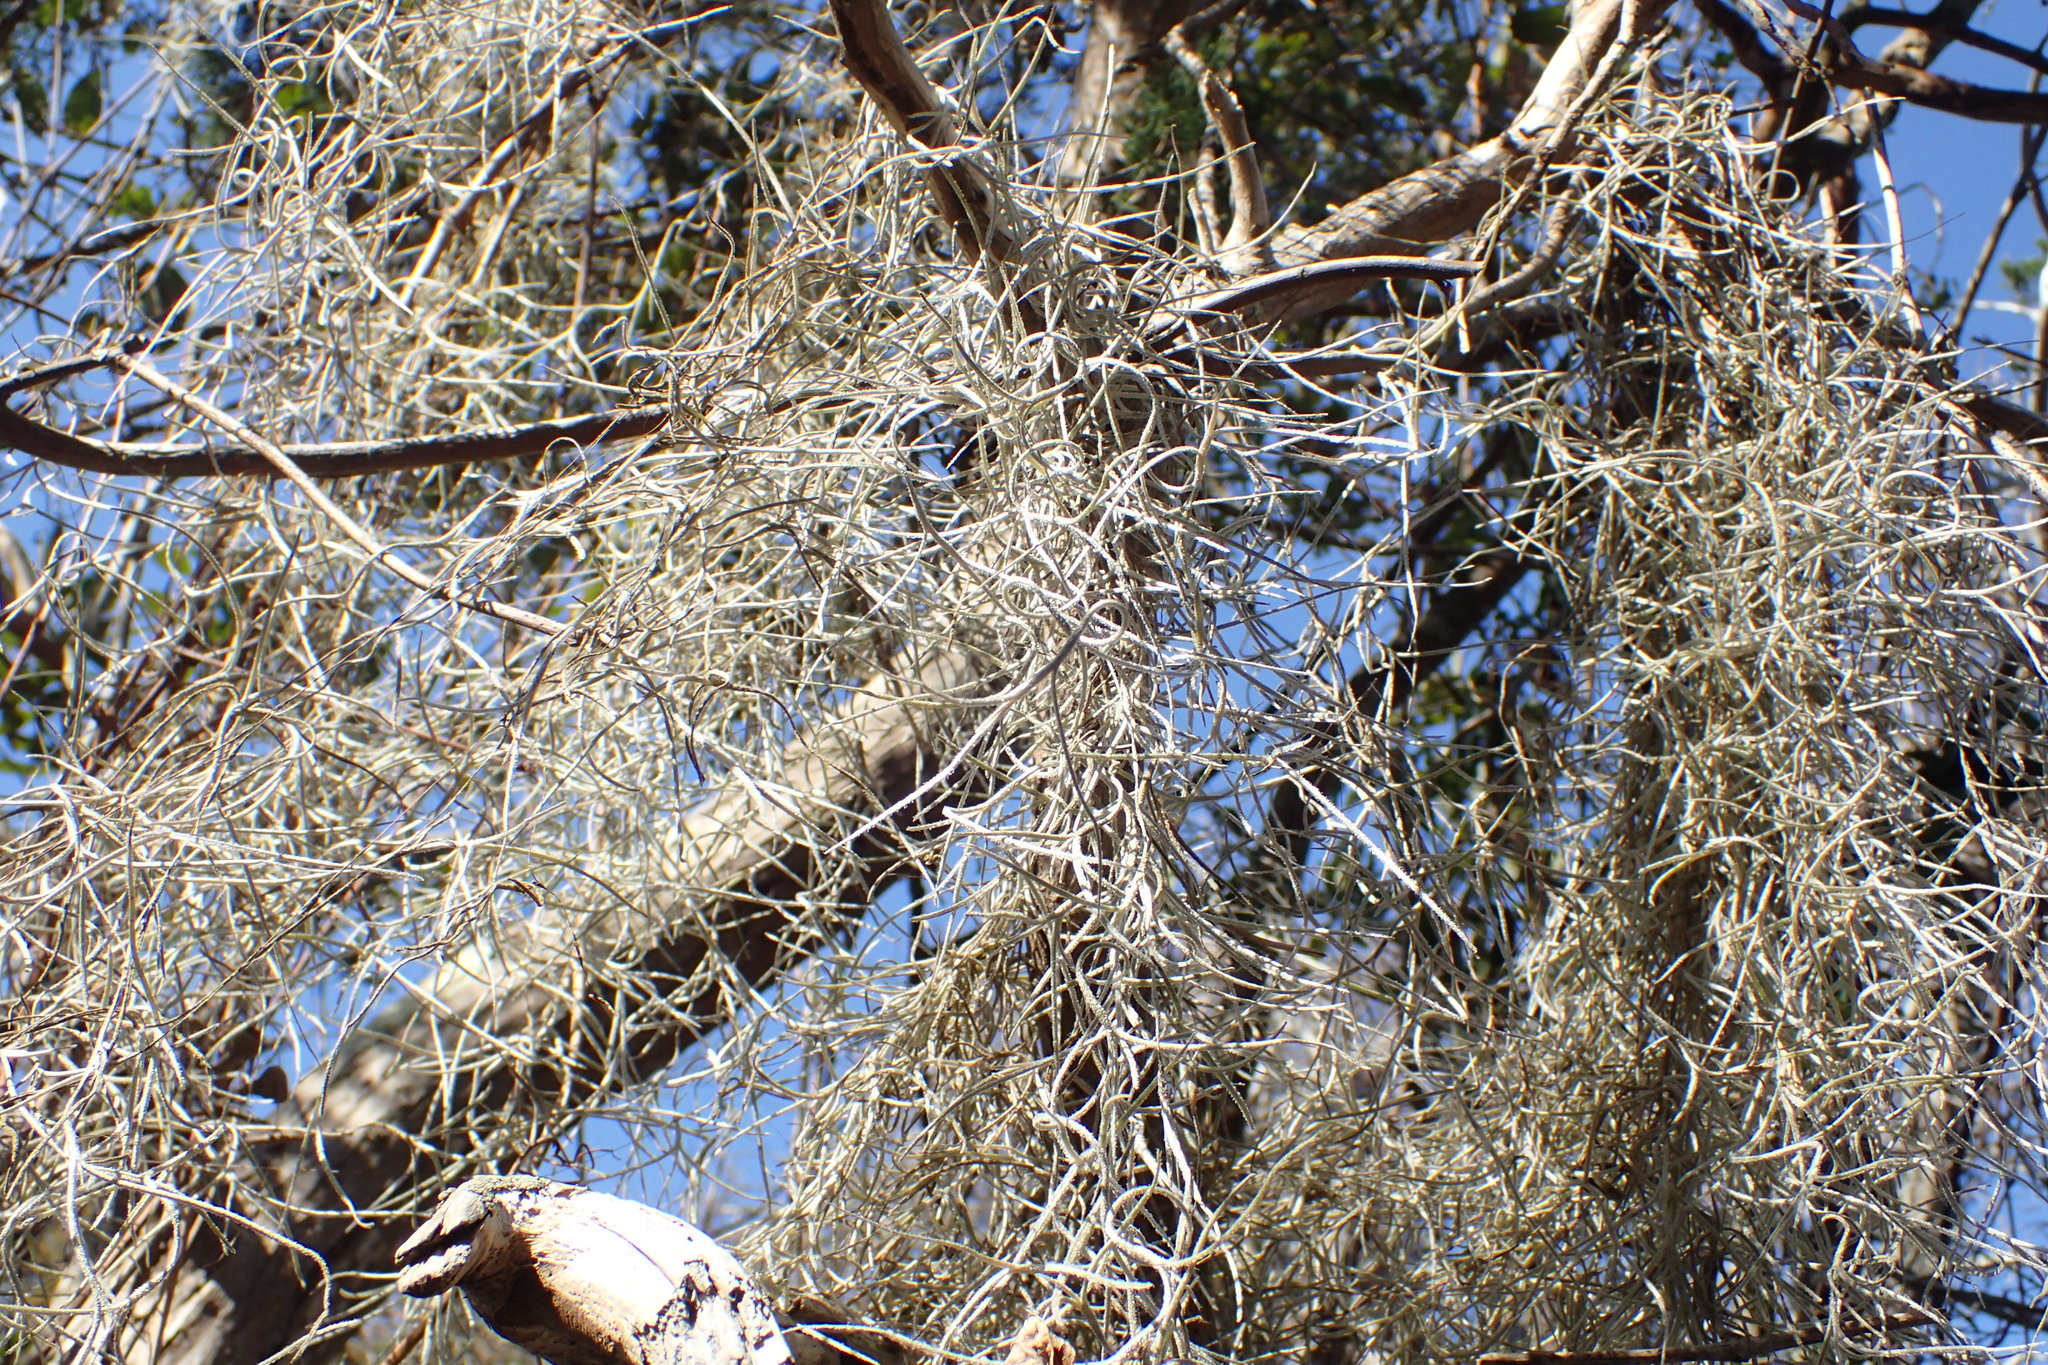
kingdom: Plantae
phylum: Tracheophyta
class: Liliopsida
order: Poales
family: Bromeliaceae
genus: Tillandsia
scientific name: Tillandsia usneoides
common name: Spanish moss
